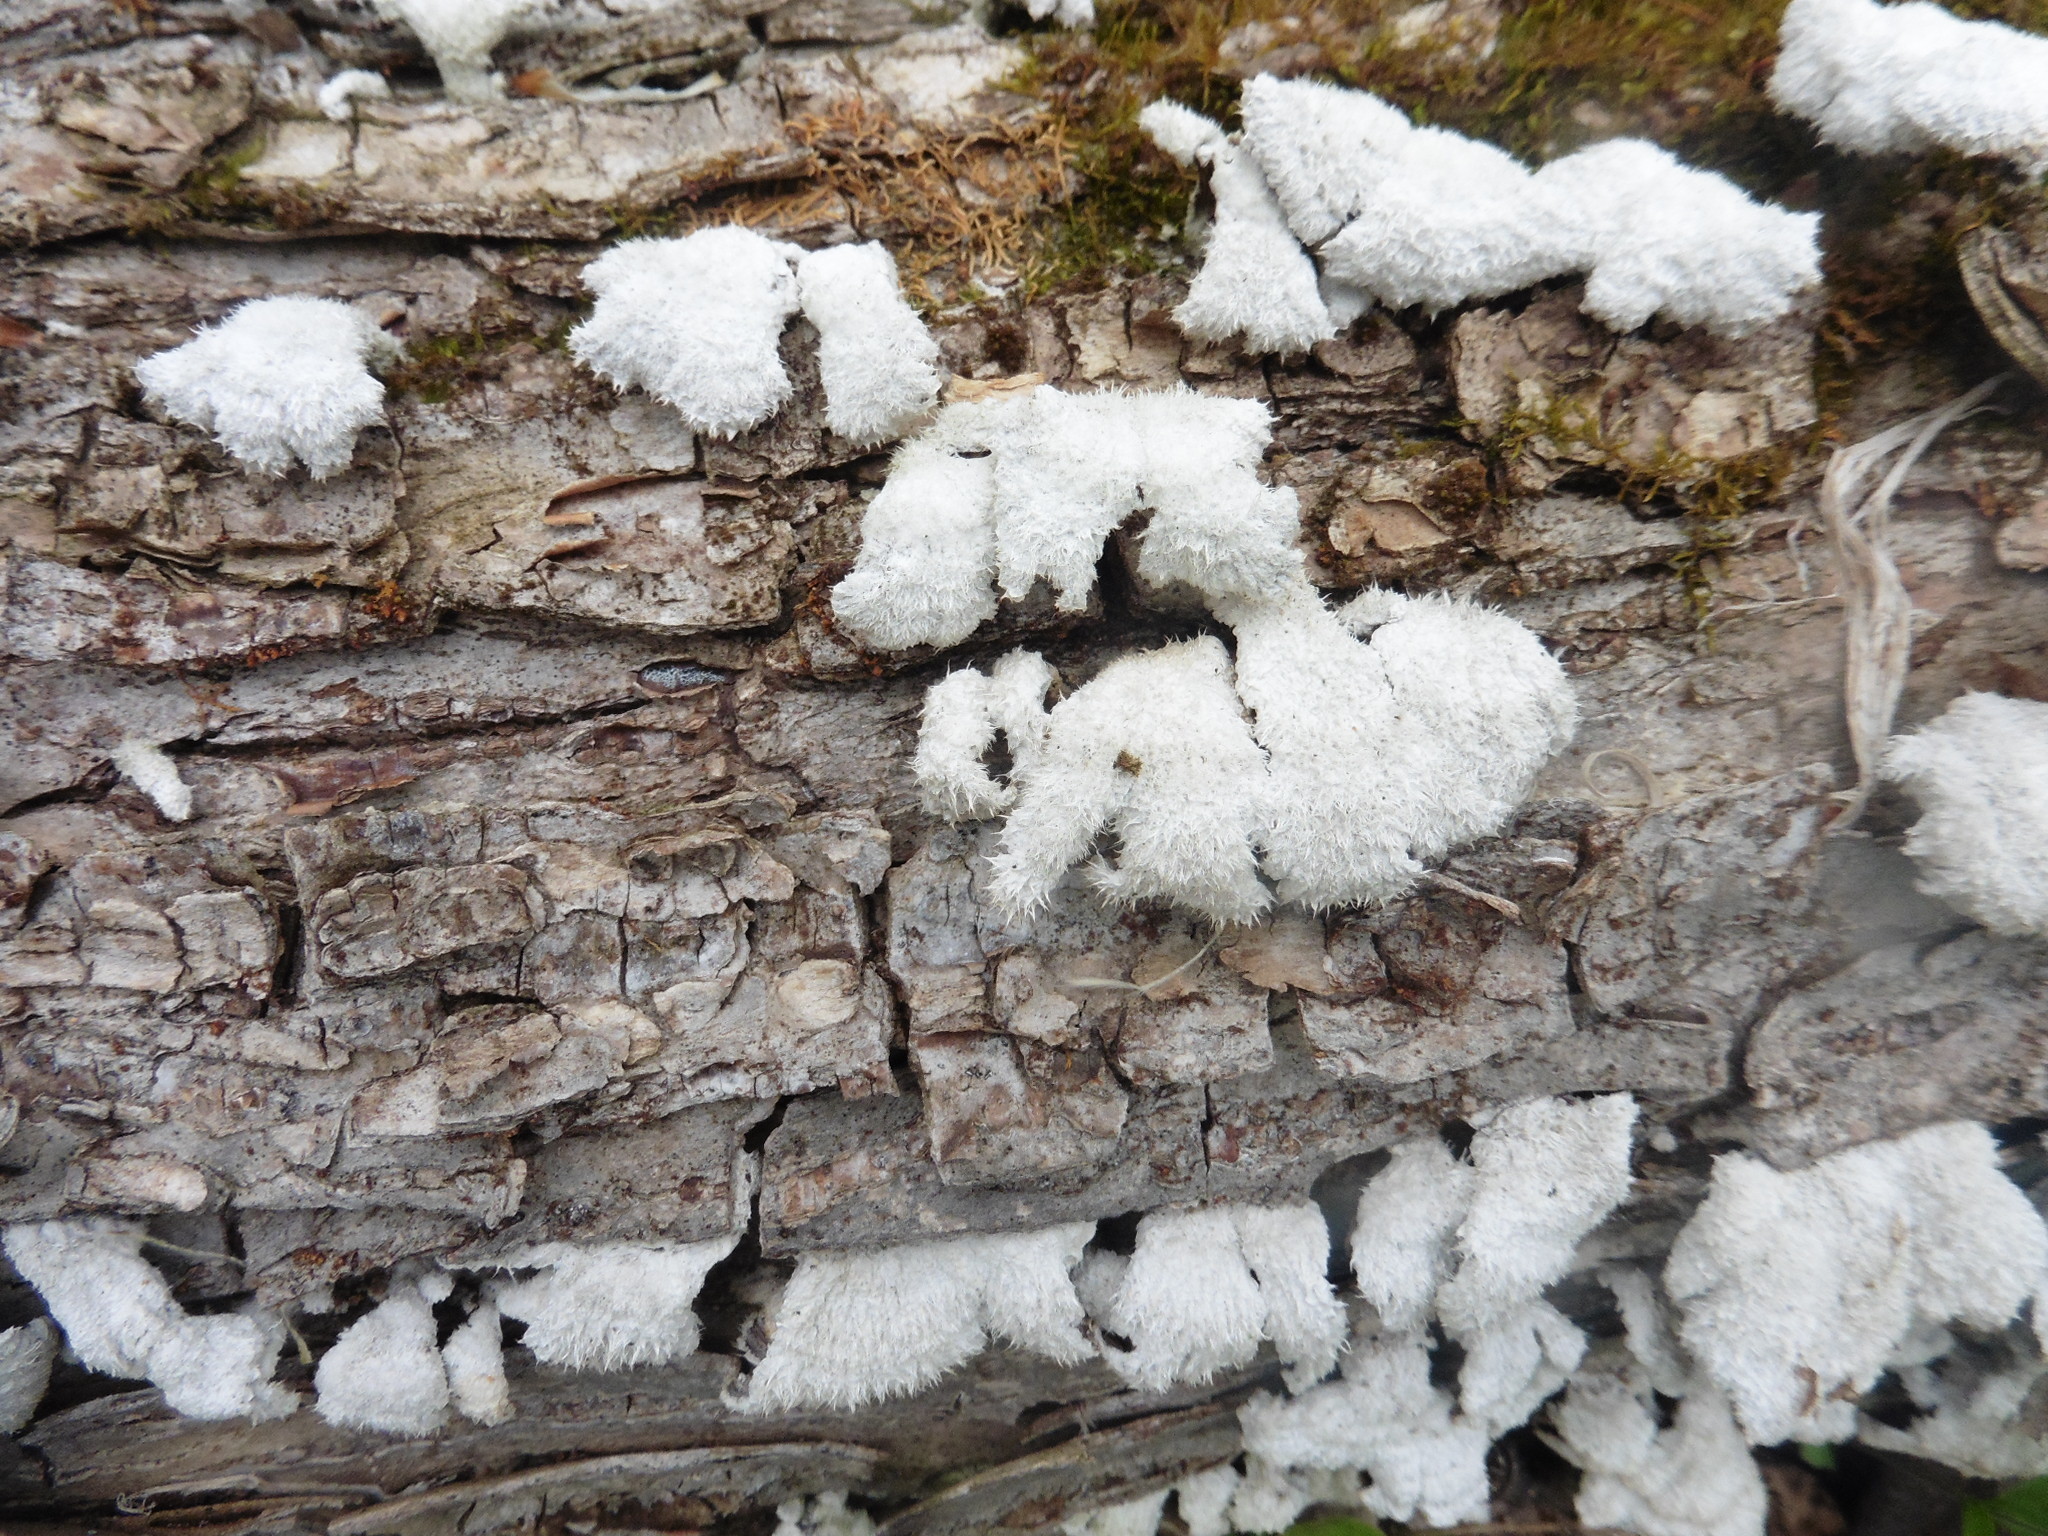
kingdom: Fungi
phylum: Basidiomycota
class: Agaricomycetes
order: Agaricales
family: Schizophyllaceae
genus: Schizophyllum
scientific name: Schizophyllum commune
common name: Common porecrust
